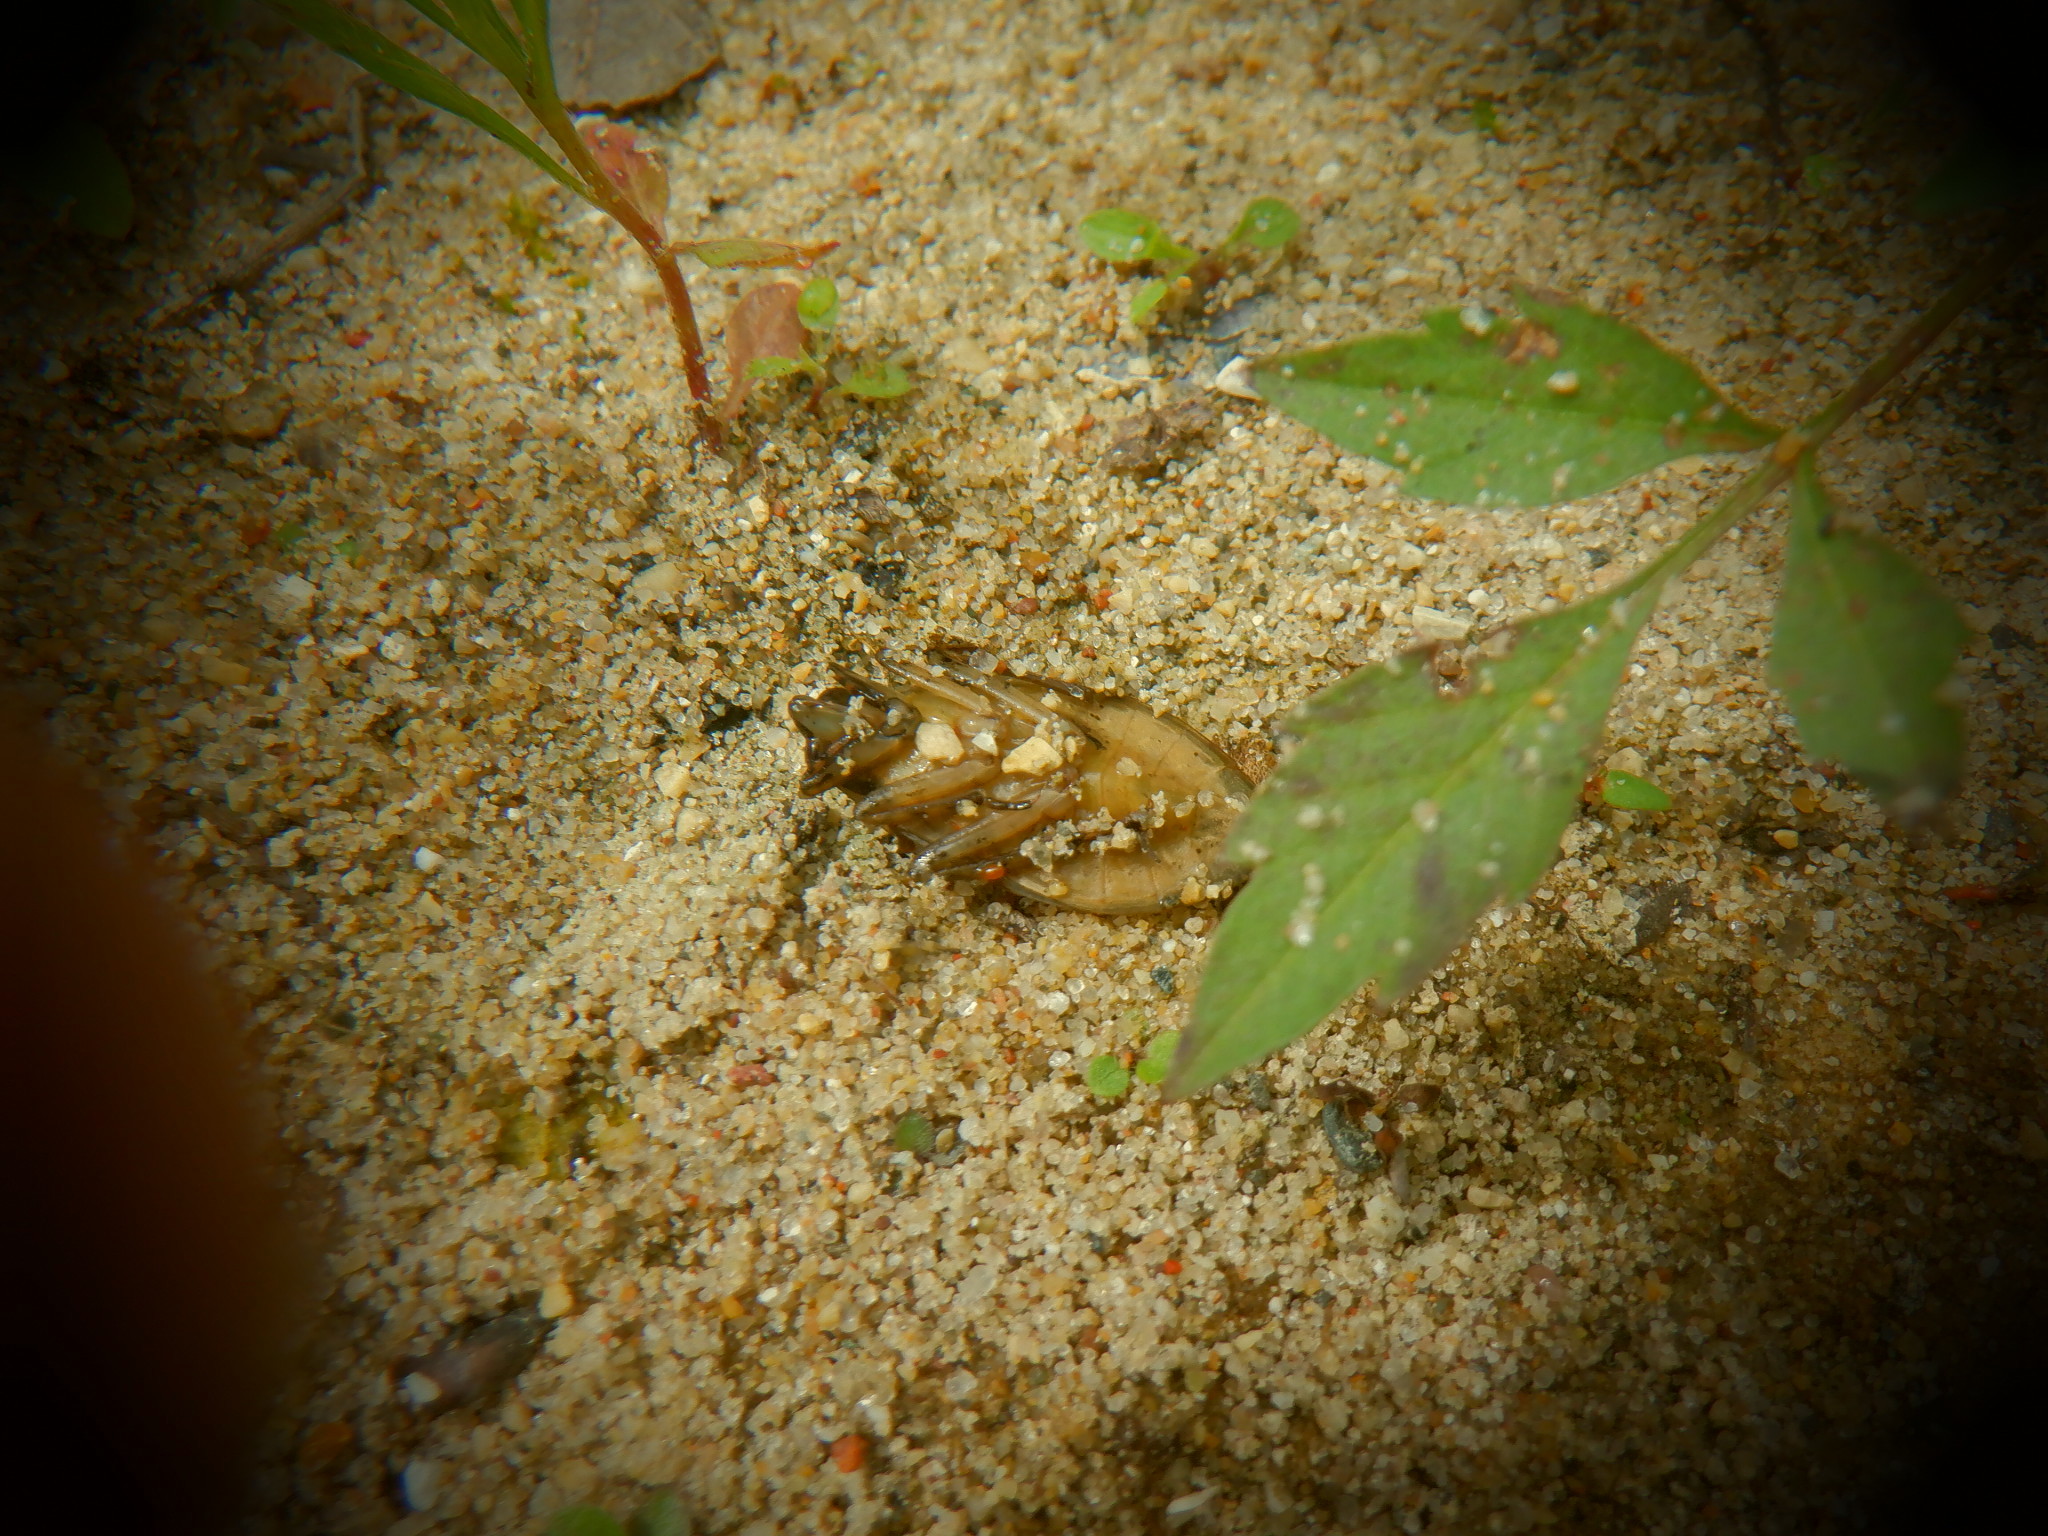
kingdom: Animalia
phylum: Arthropoda
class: Insecta
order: Hemiptera
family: Belostomatidae
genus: Belostoma
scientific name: Belostoma flumineum
